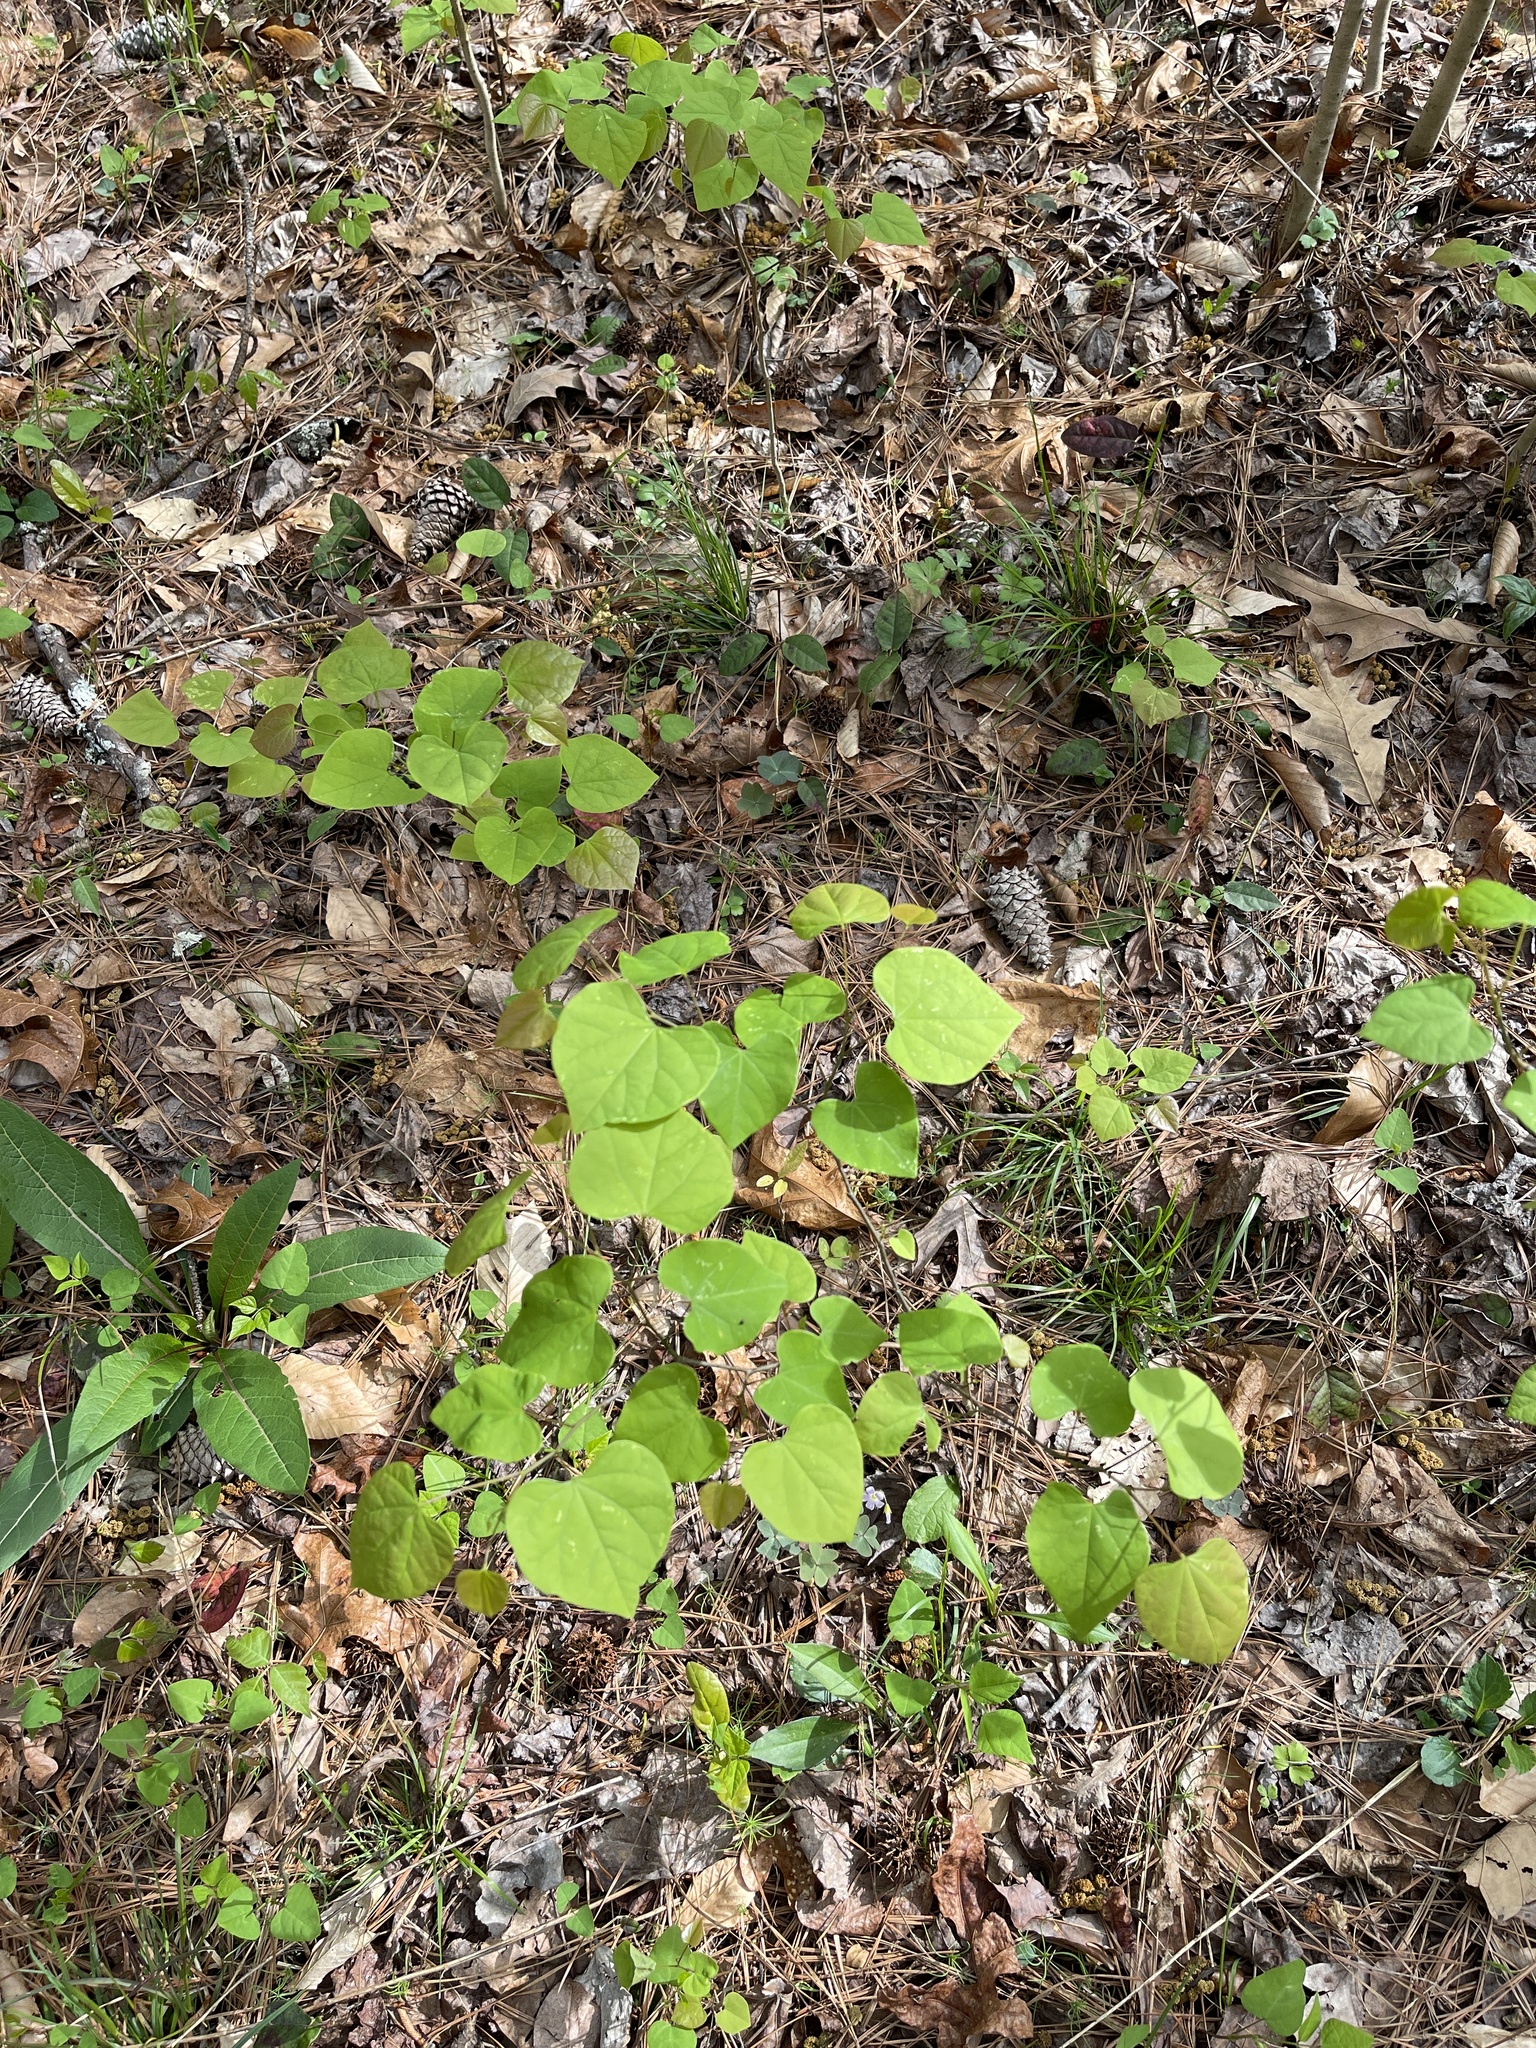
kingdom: Plantae
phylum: Tracheophyta
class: Magnoliopsida
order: Fabales
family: Fabaceae
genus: Cercis
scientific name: Cercis canadensis
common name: Eastern redbud
